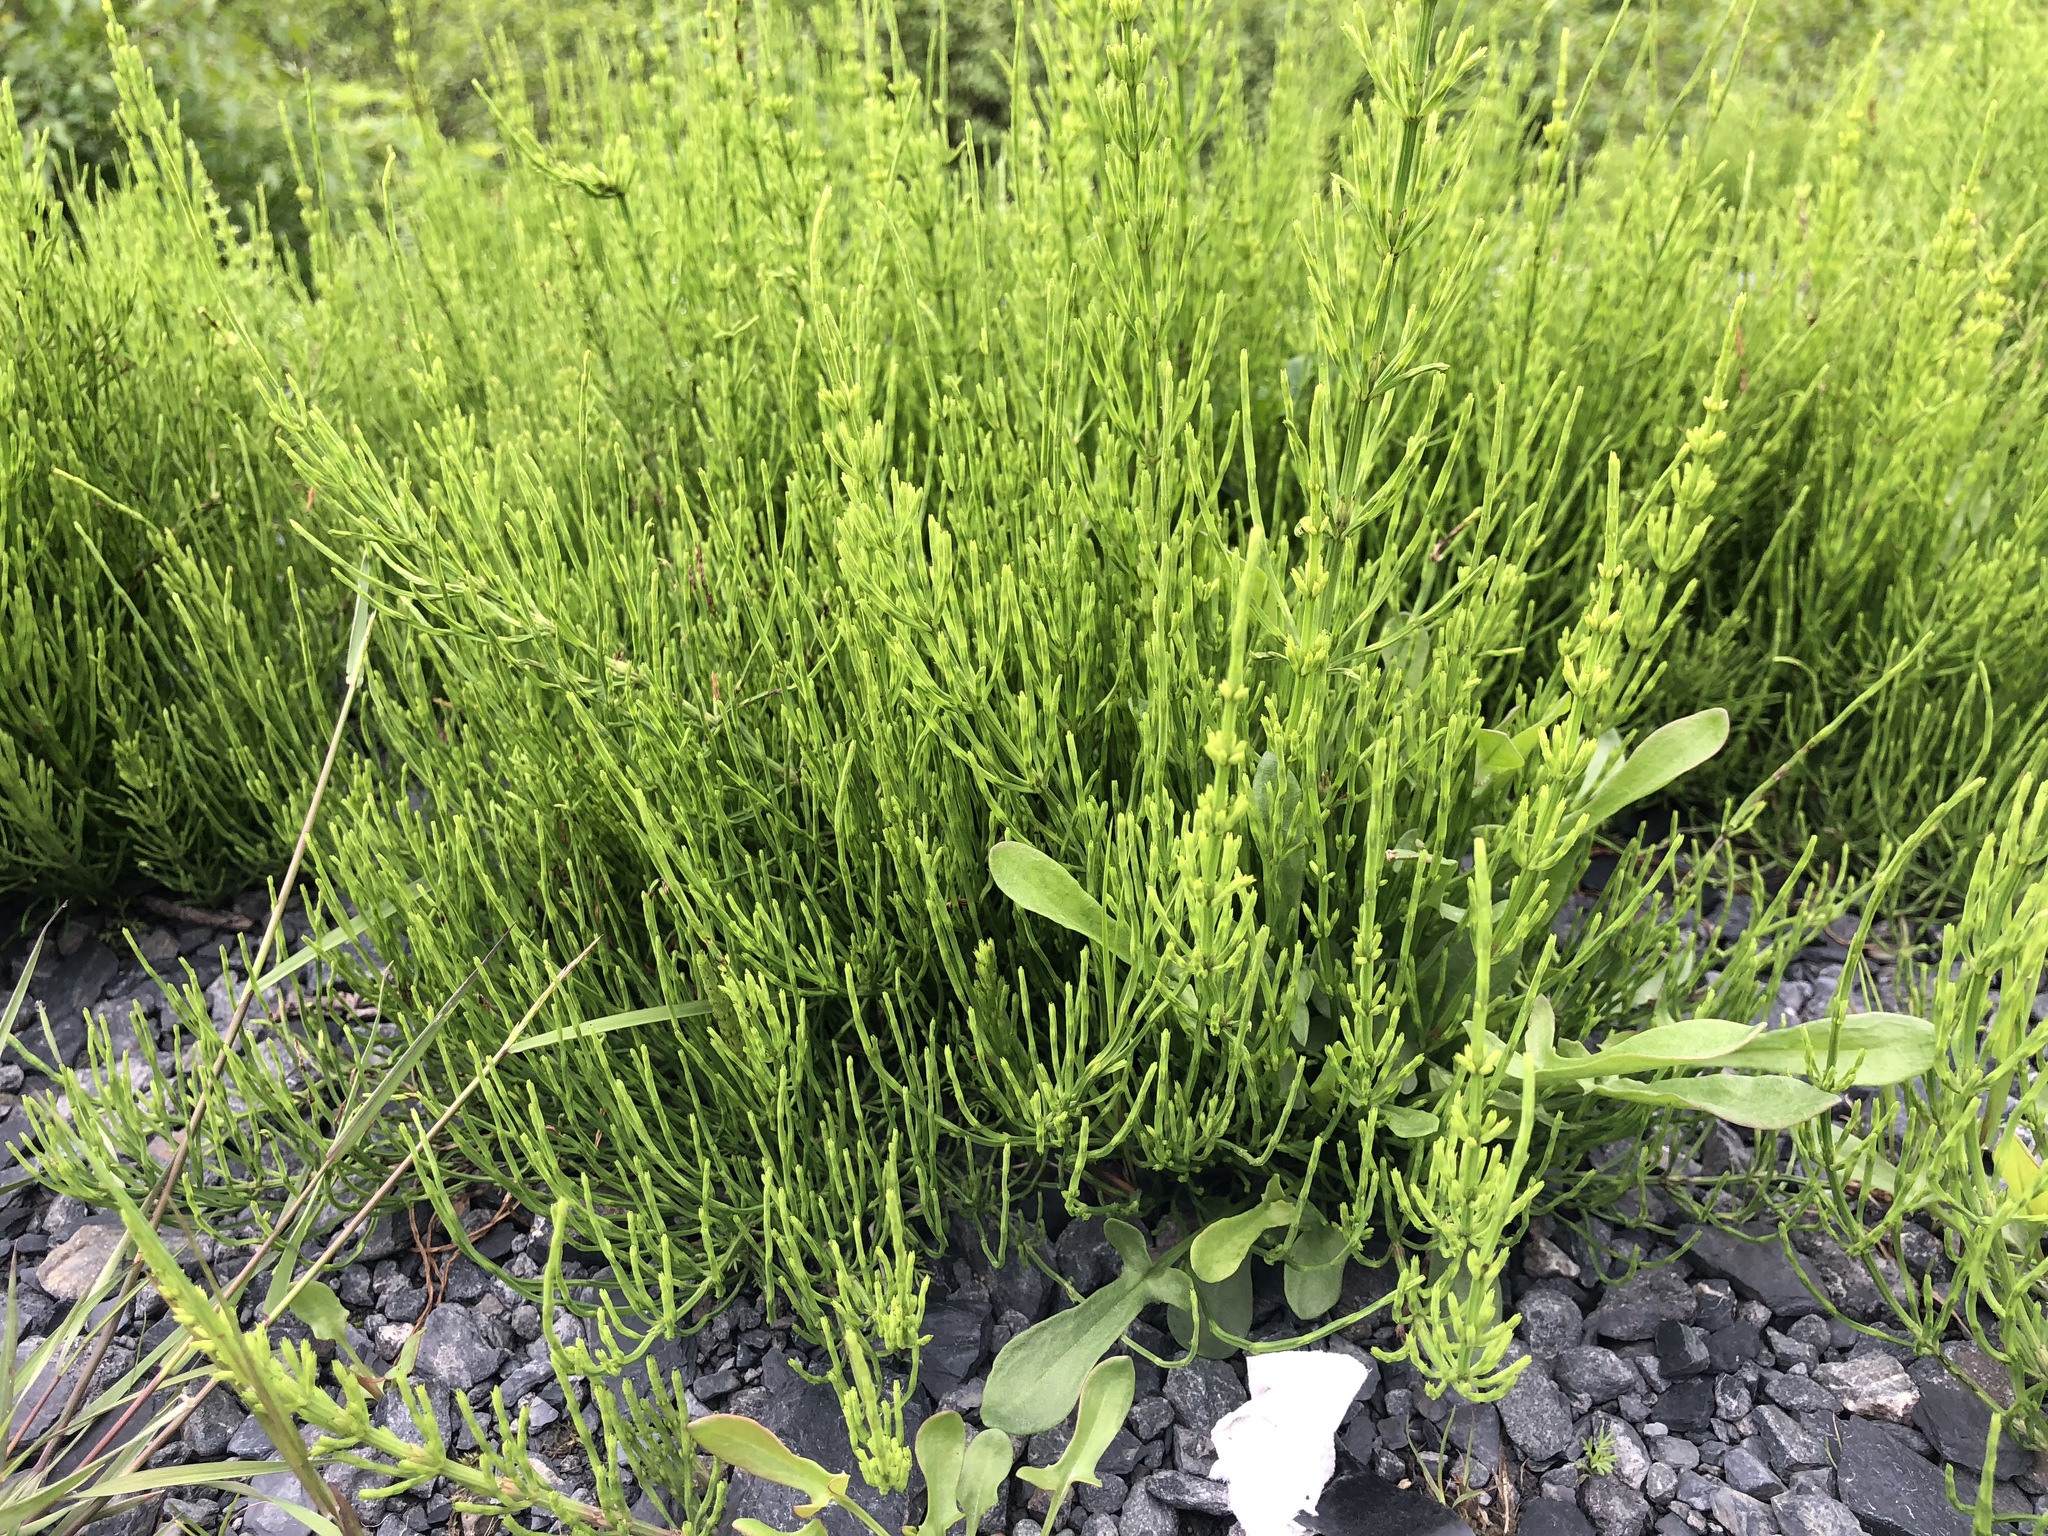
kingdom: Plantae
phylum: Tracheophyta
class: Polypodiopsida
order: Equisetales
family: Equisetaceae
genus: Equisetum
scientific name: Equisetum arvense
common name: Field horsetail
